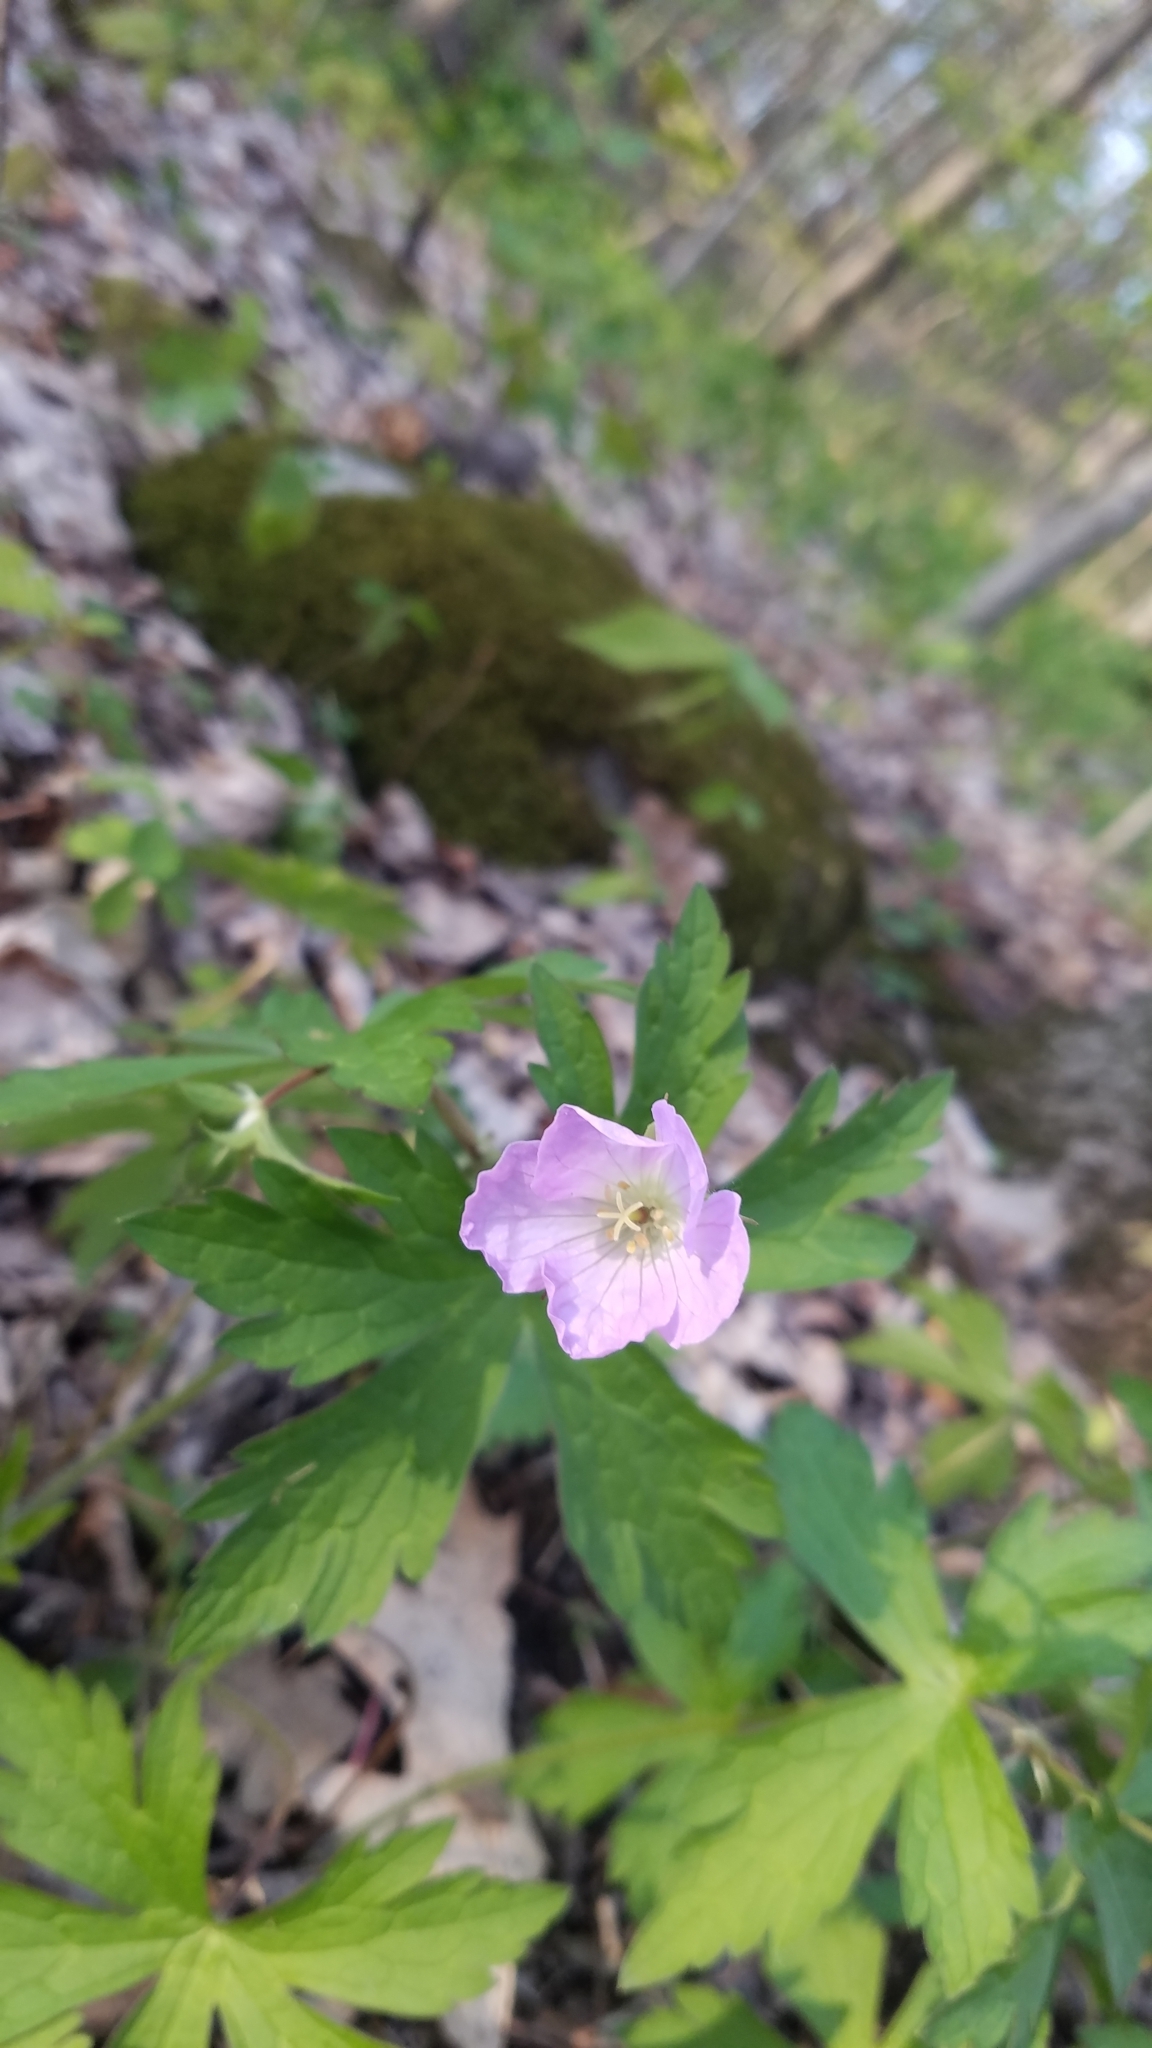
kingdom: Plantae
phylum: Tracheophyta
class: Magnoliopsida
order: Geraniales
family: Geraniaceae
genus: Geranium
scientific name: Geranium maculatum
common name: Spotted geranium
